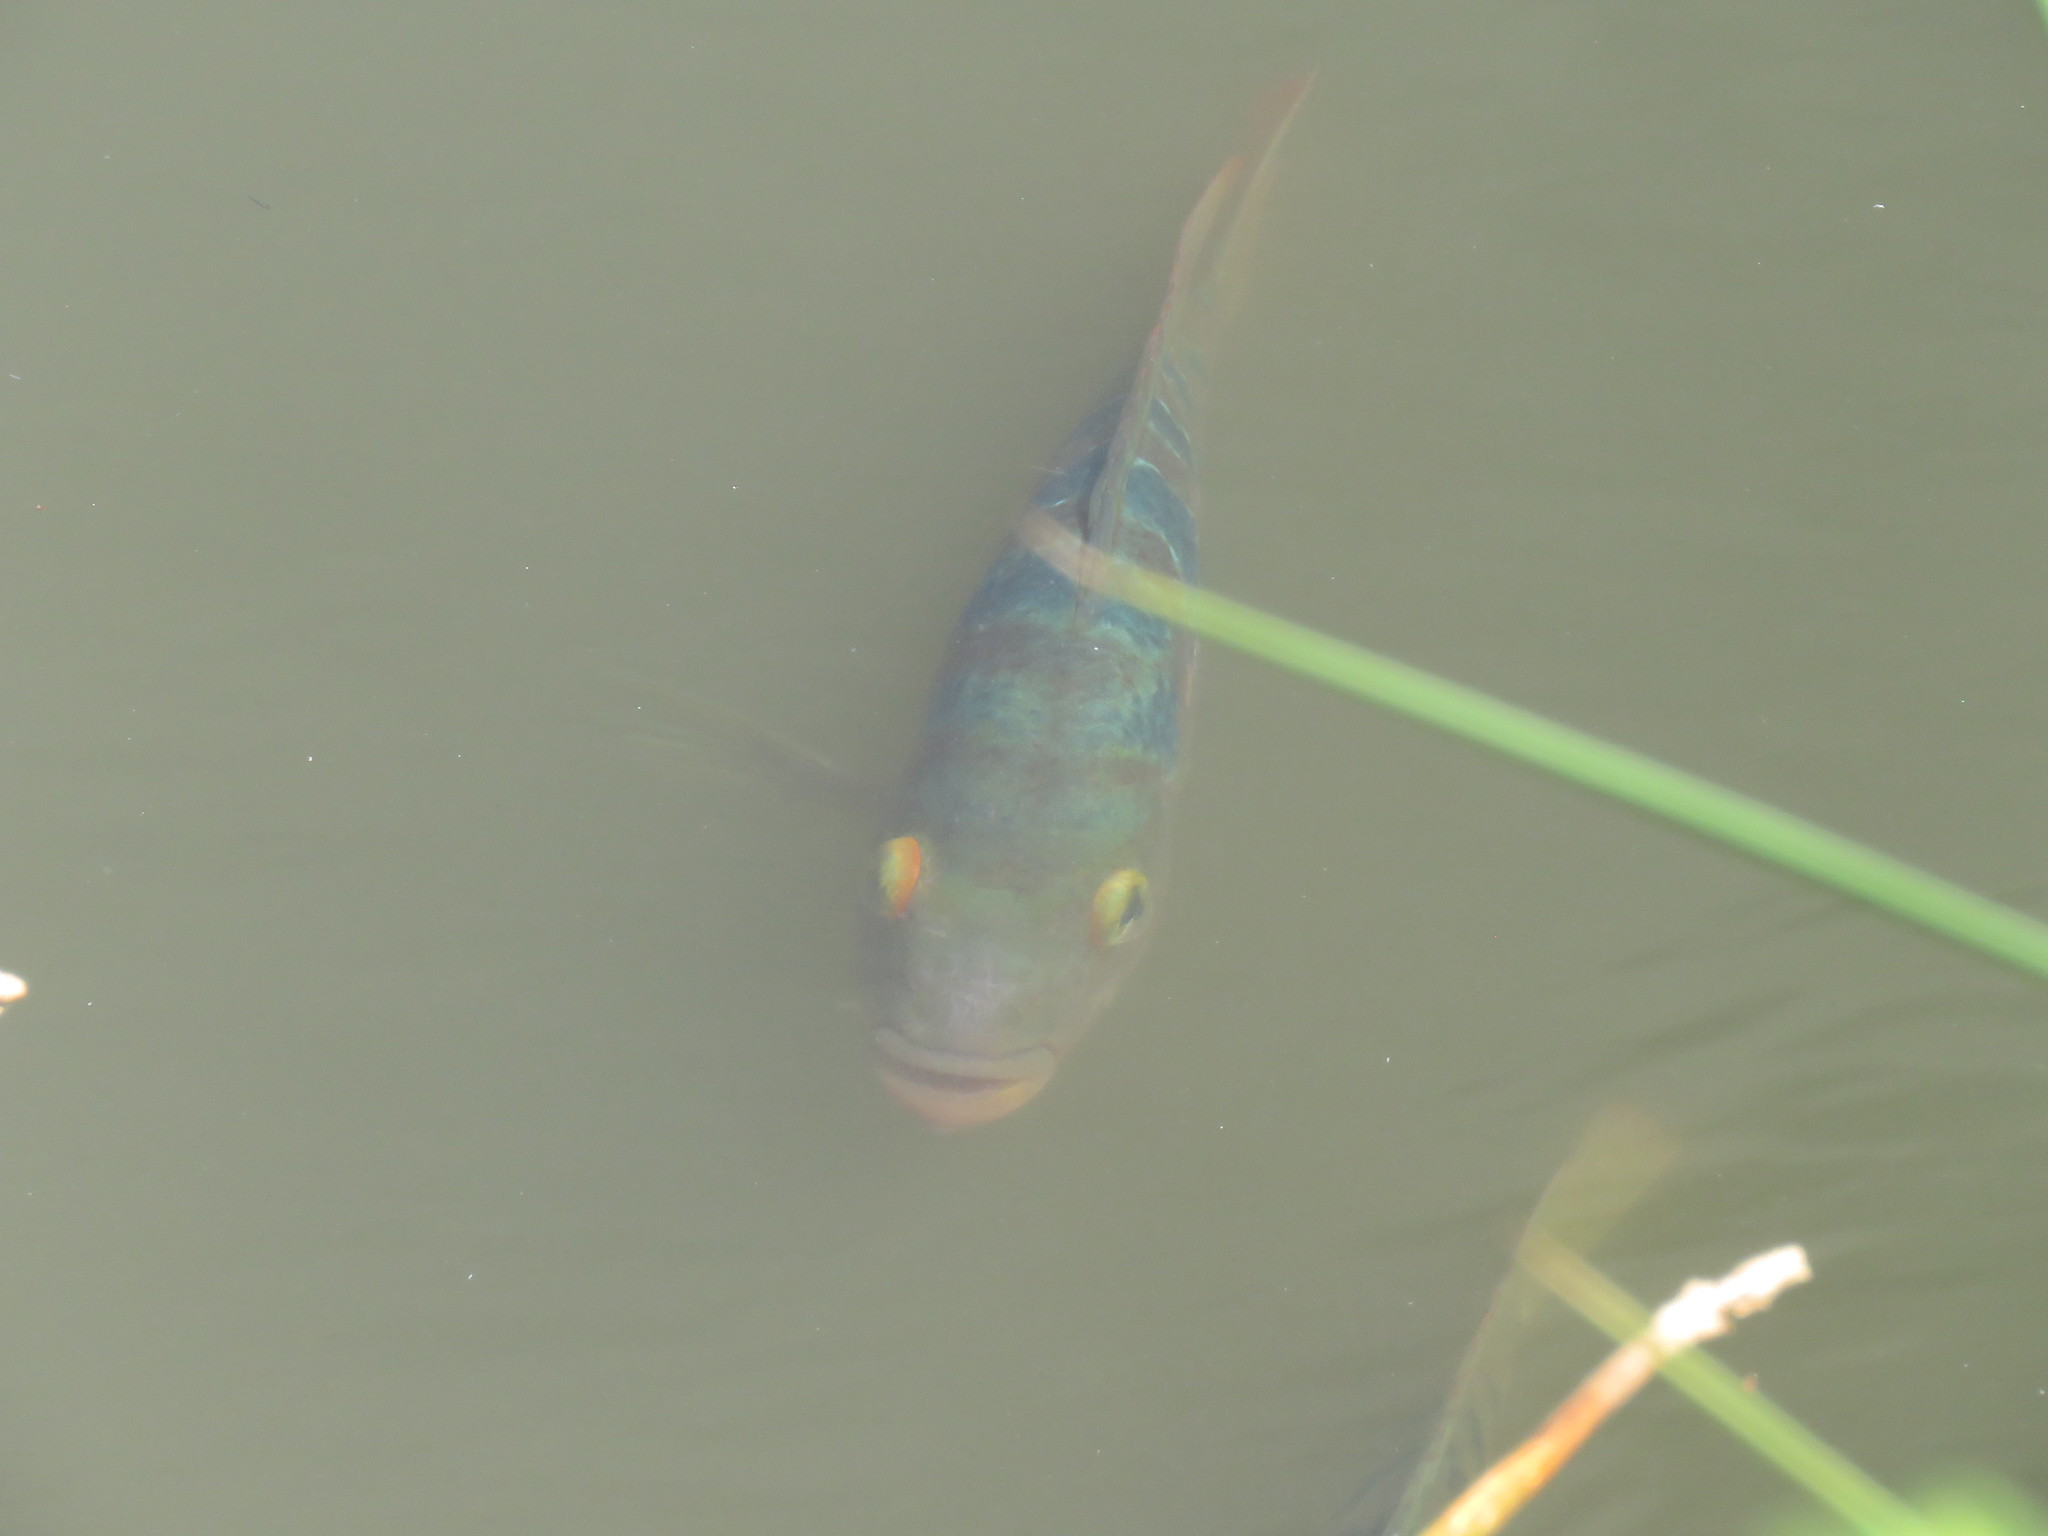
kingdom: Animalia
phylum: Chordata
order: Perciformes
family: Cichlidae
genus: Mayaheros
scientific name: Mayaheros urophthalmus
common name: Mayan cichlid
